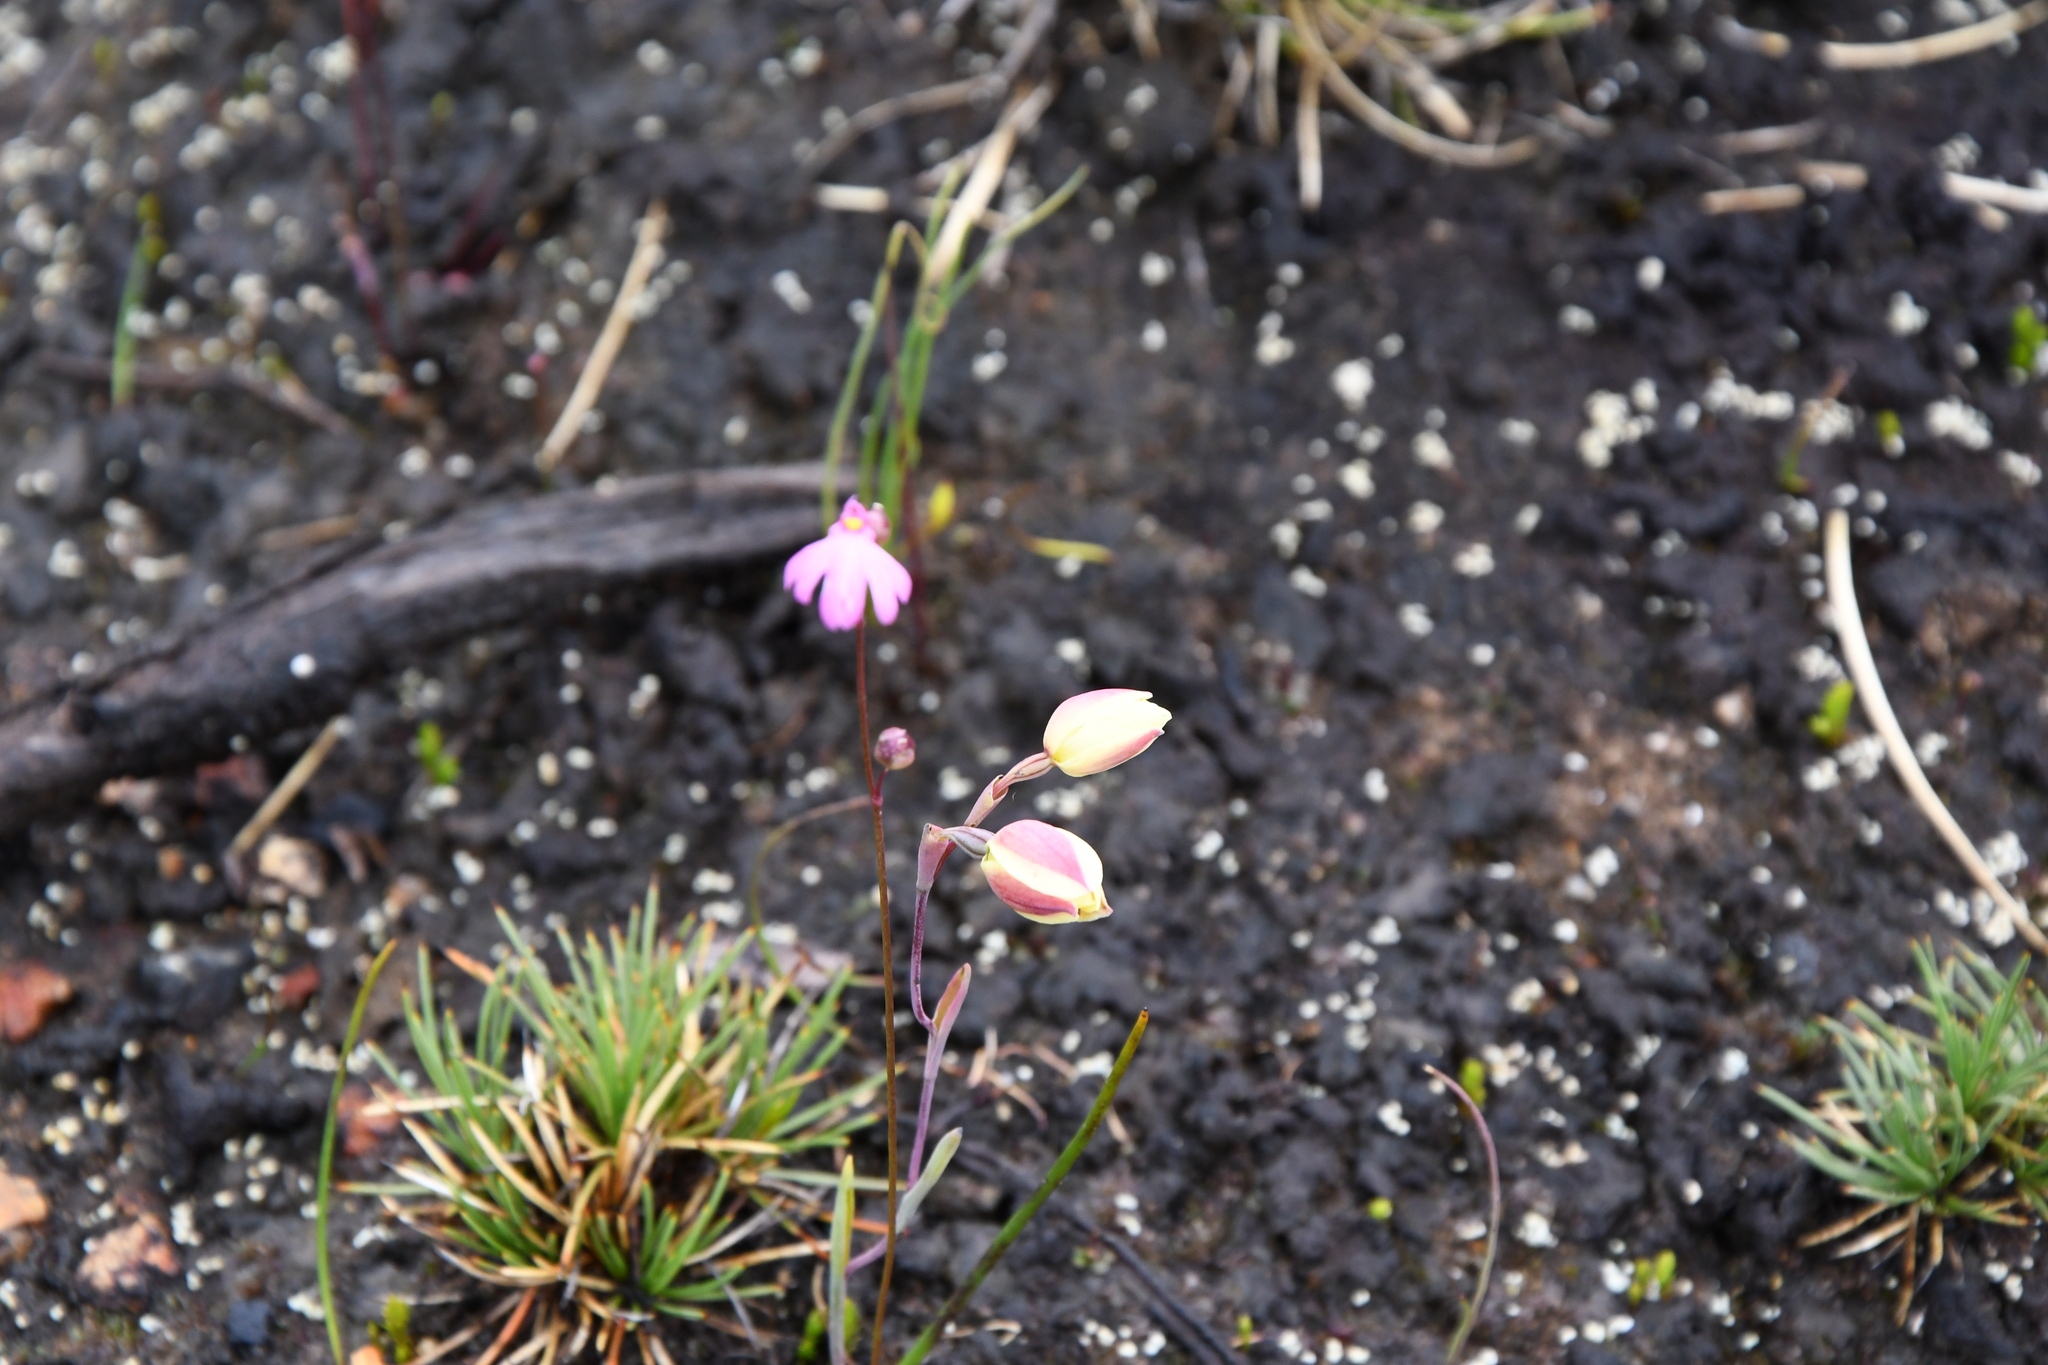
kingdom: Plantae
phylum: Tracheophyta
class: Magnoliopsida
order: Lamiales
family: Lentibulariaceae
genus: Utricularia
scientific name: Utricularia multifida
